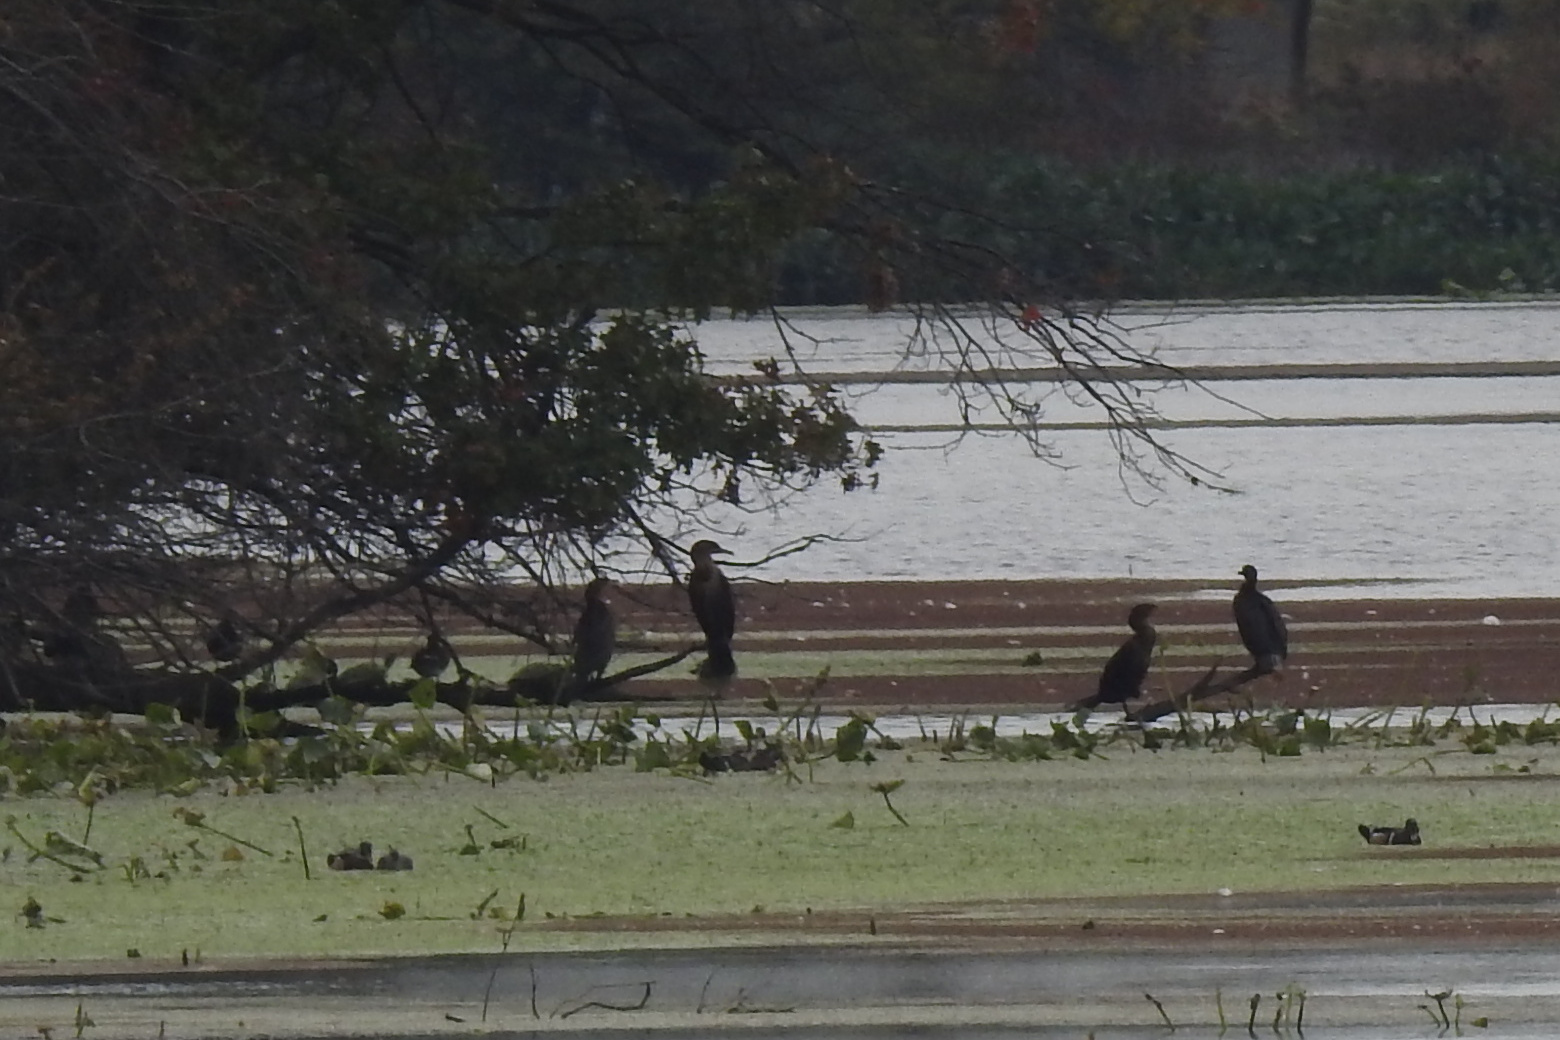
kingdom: Animalia
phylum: Chordata
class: Aves
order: Suliformes
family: Phalacrocoracidae
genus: Phalacrocorax
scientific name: Phalacrocorax auritus
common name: Double-crested cormorant
